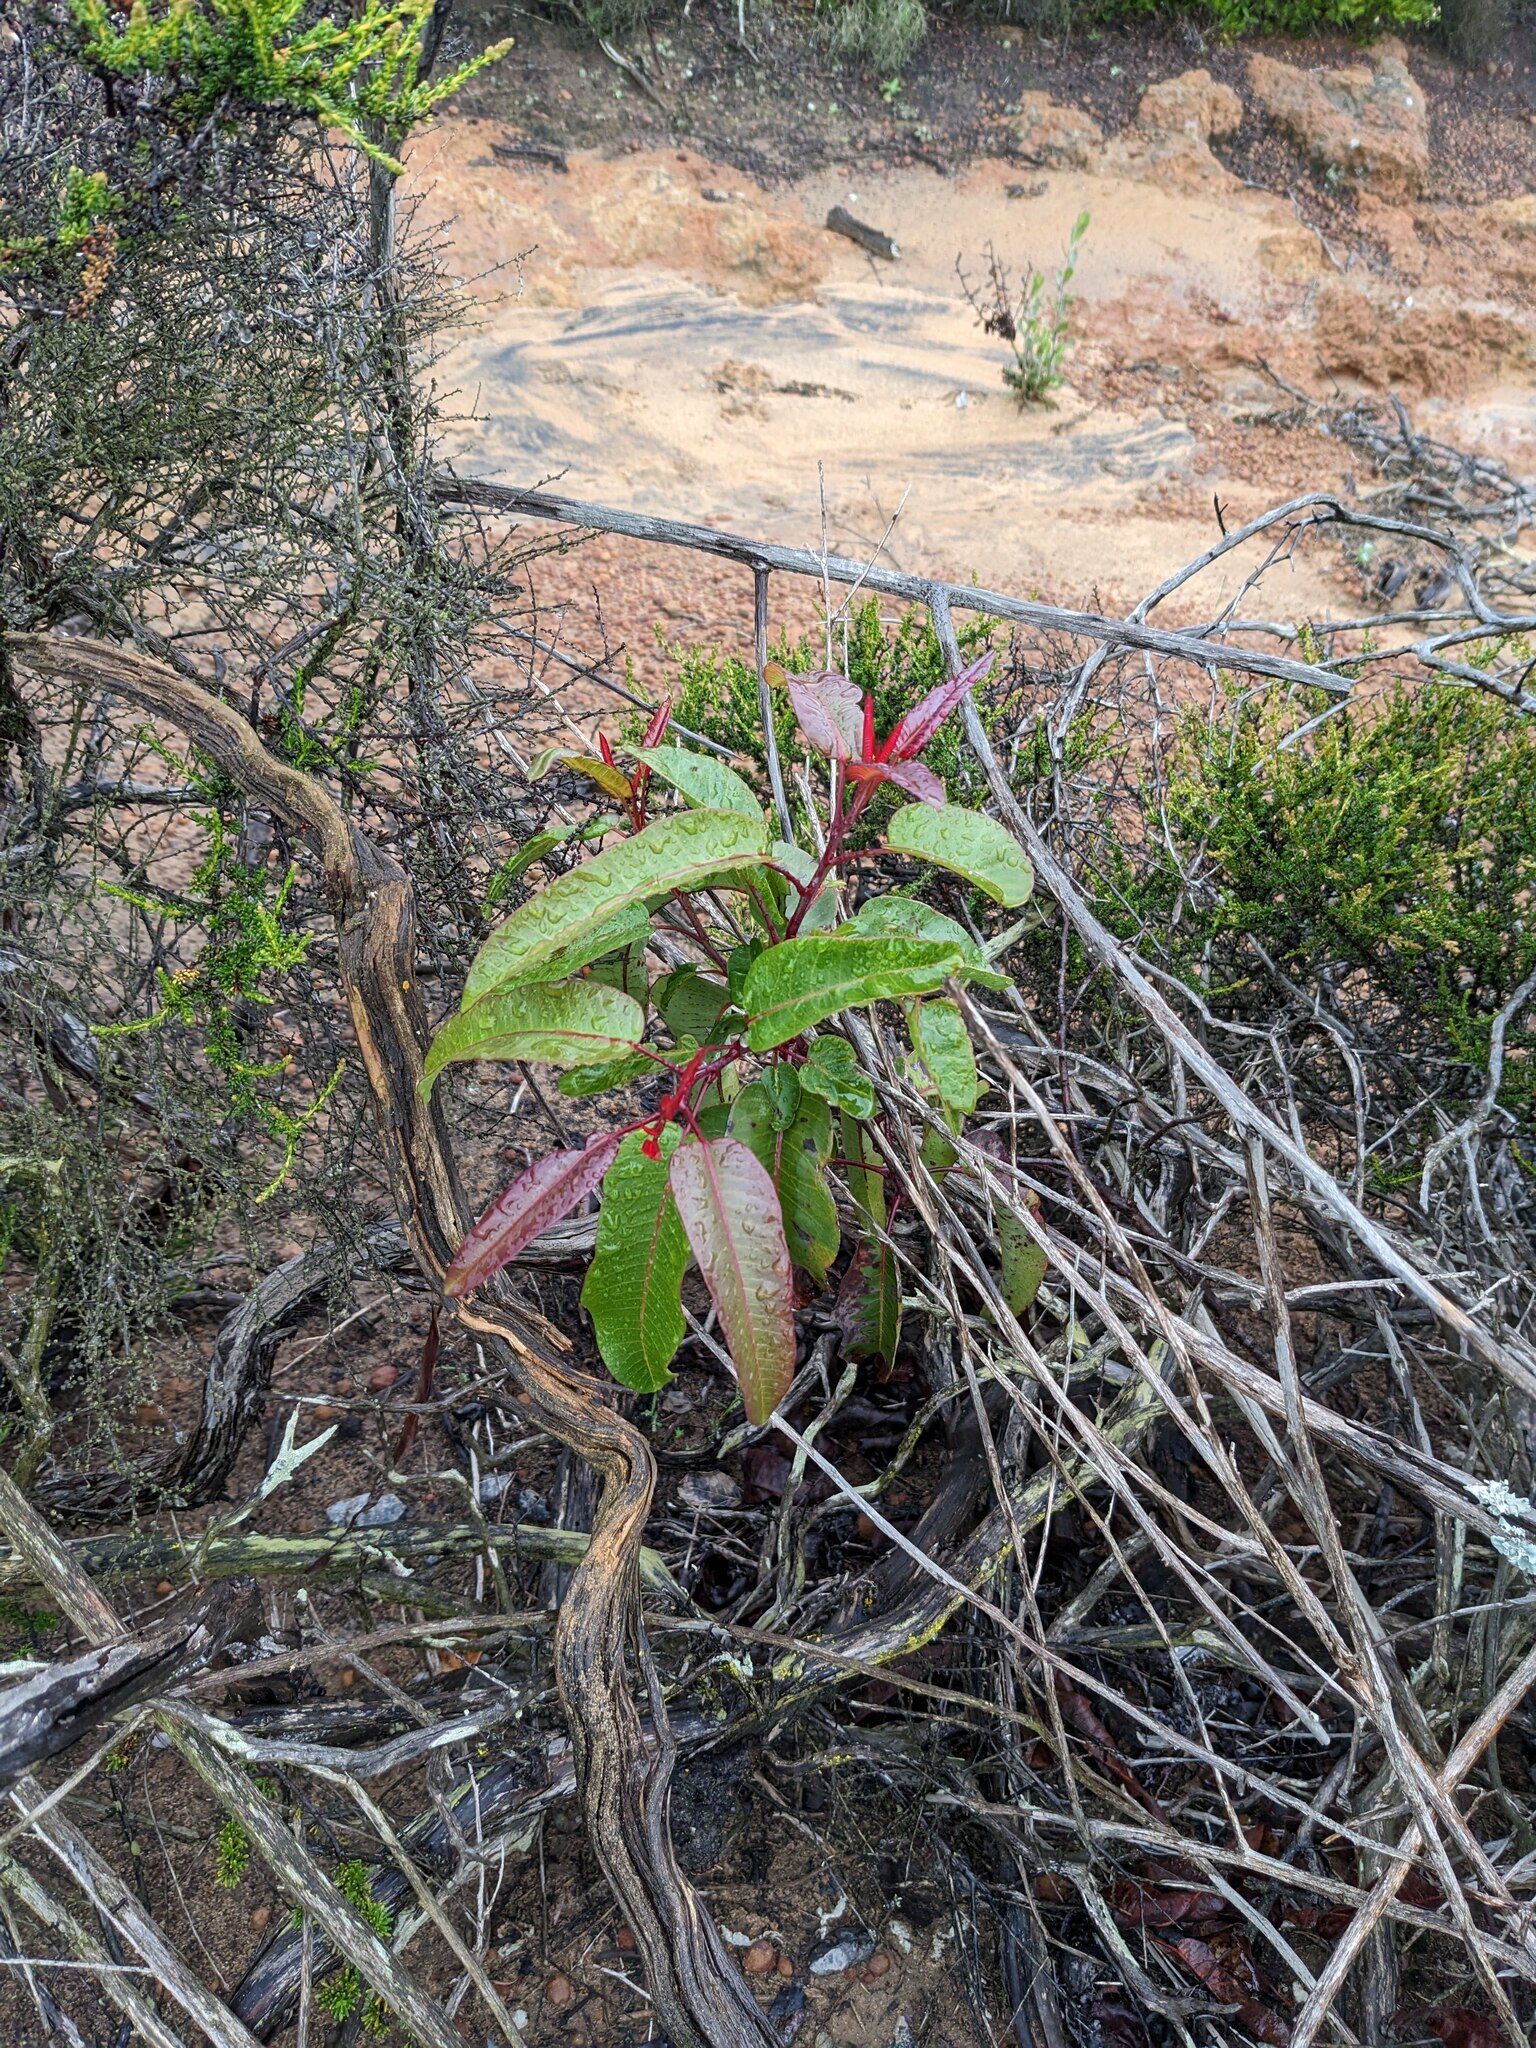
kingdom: Plantae
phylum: Tracheophyta
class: Magnoliopsida
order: Sapindales
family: Anacardiaceae
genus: Malosma
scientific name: Malosma laurina
